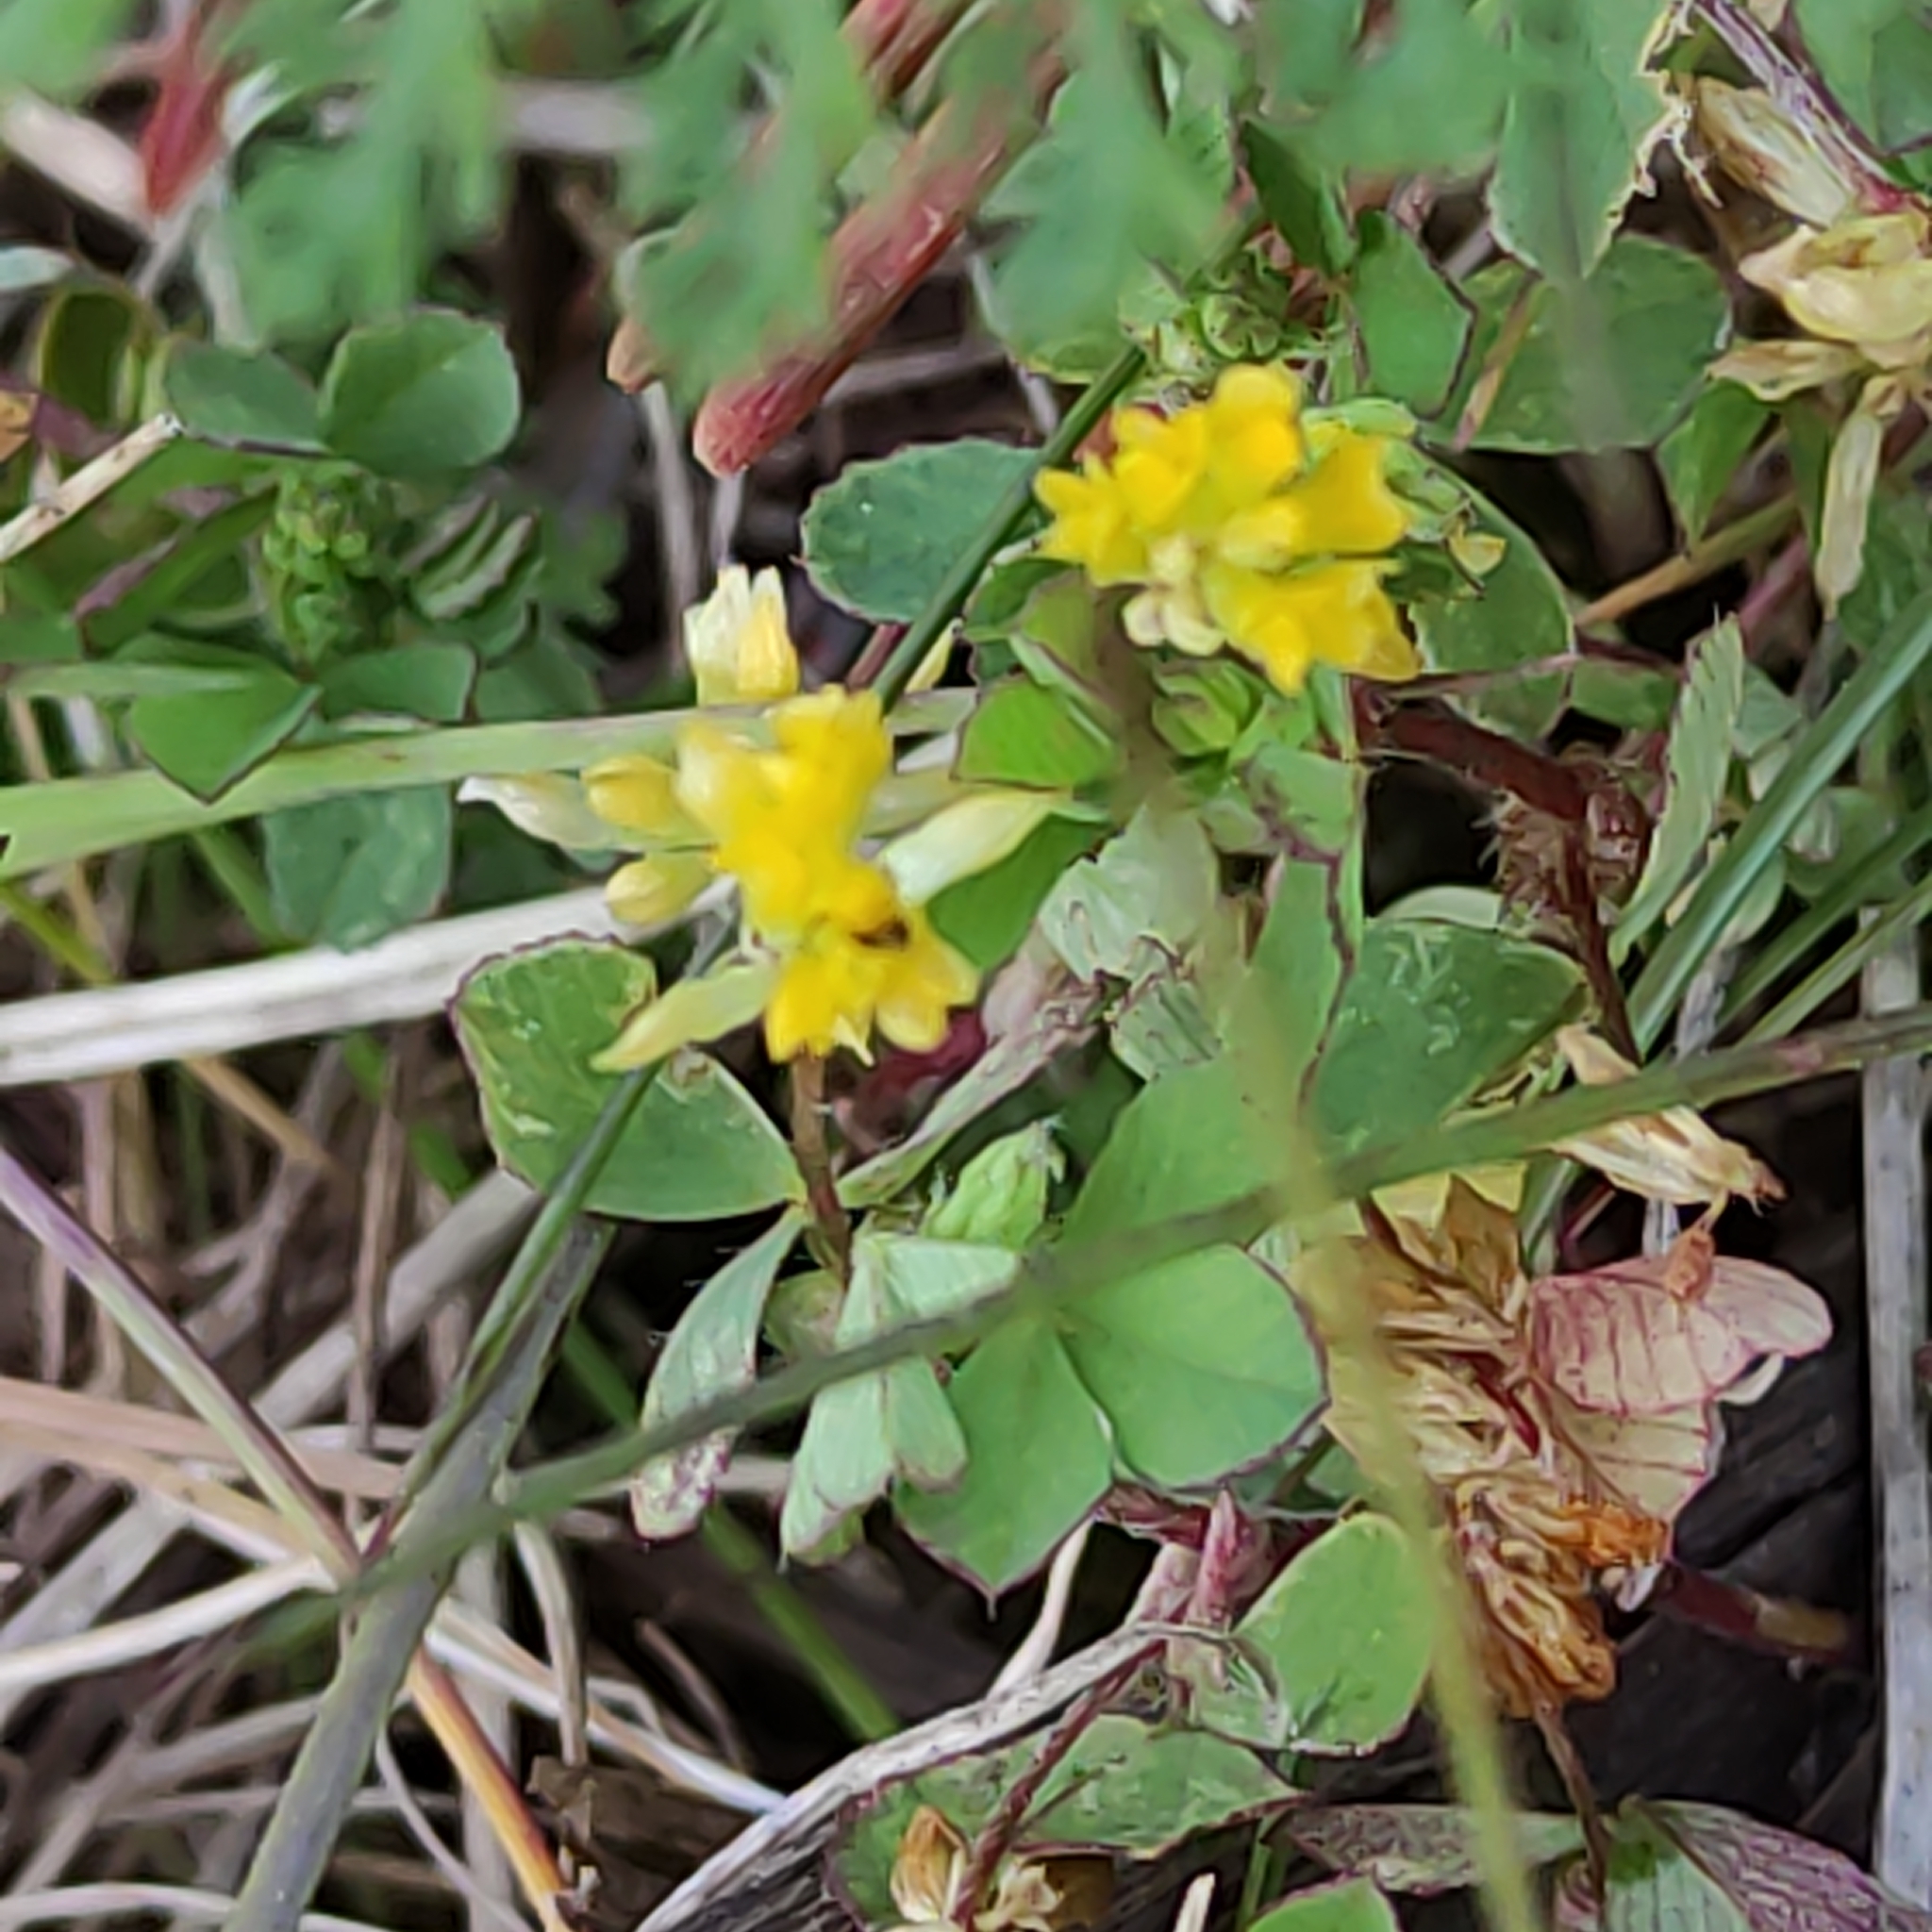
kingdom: Plantae
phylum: Tracheophyta
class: Magnoliopsida
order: Fabales
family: Fabaceae
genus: Trifolium
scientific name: Trifolium dubium
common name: Suckling clover
